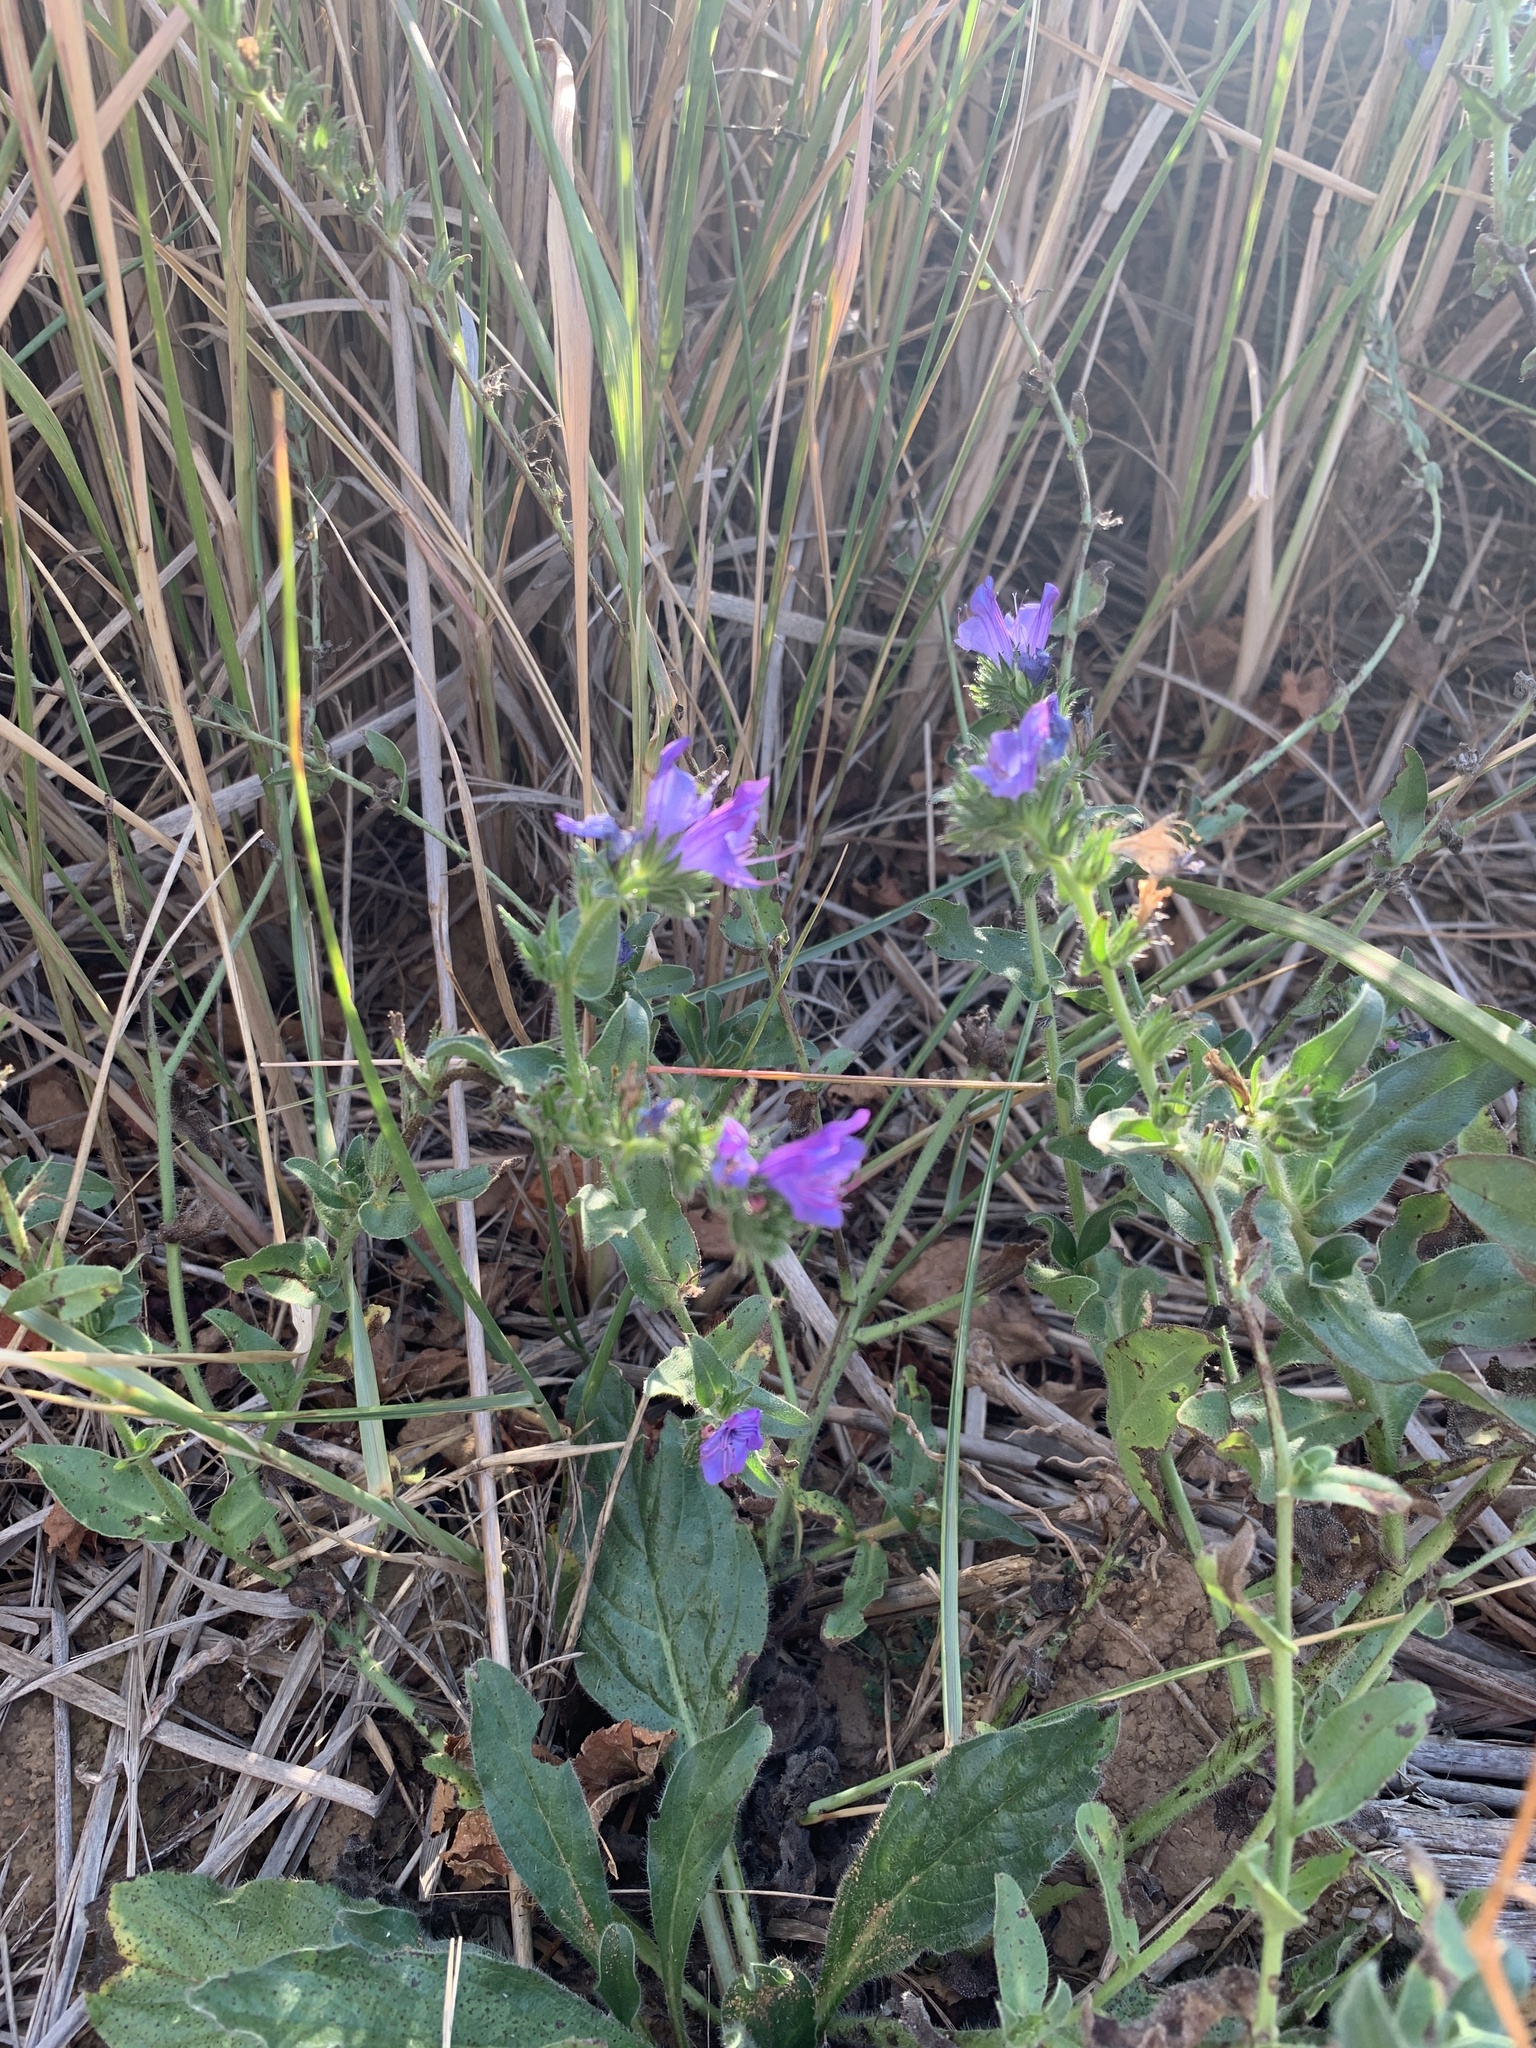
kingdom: Plantae
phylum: Tracheophyta
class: Magnoliopsida
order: Boraginales
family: Boraginaceae
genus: Echium
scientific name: Echium plantagineum
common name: Purple viper's-bugloss
